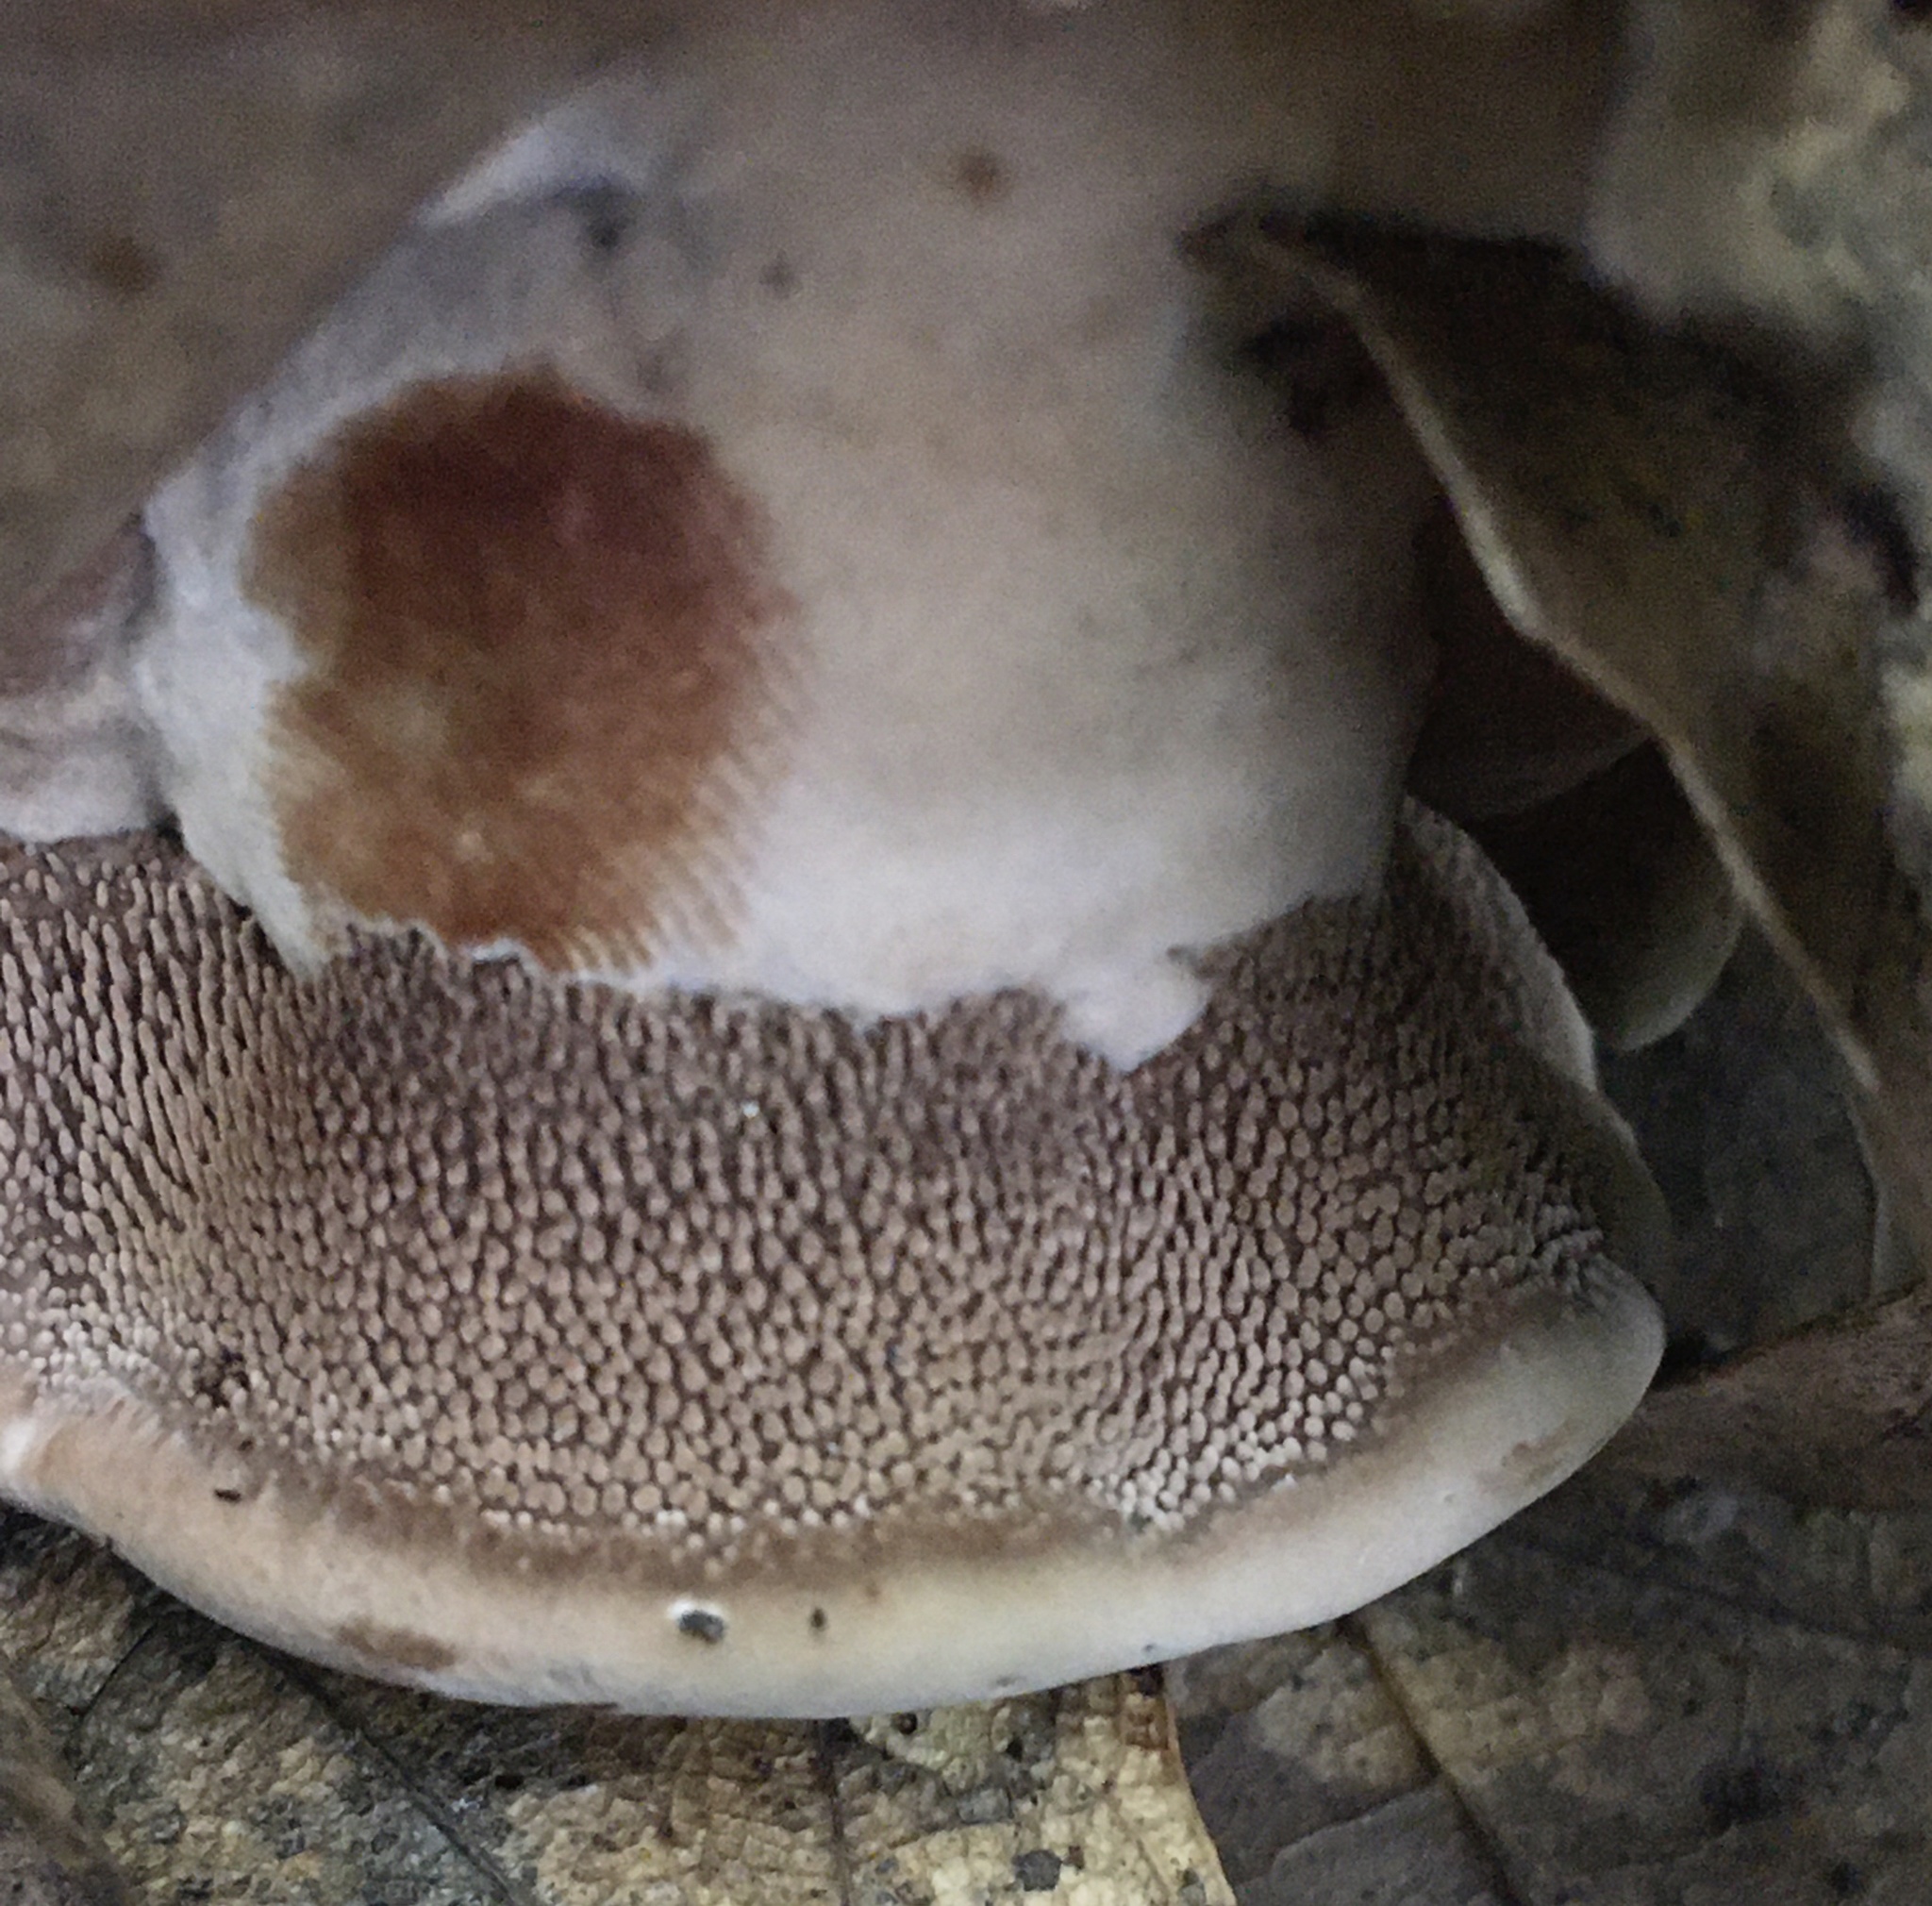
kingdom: Fungi
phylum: Basidiomycota
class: Agaricomycetes
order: Thelephorales
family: Bankeraceae
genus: Hydnellum
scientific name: Hydnellum spongiosipes
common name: Velvet tooth
